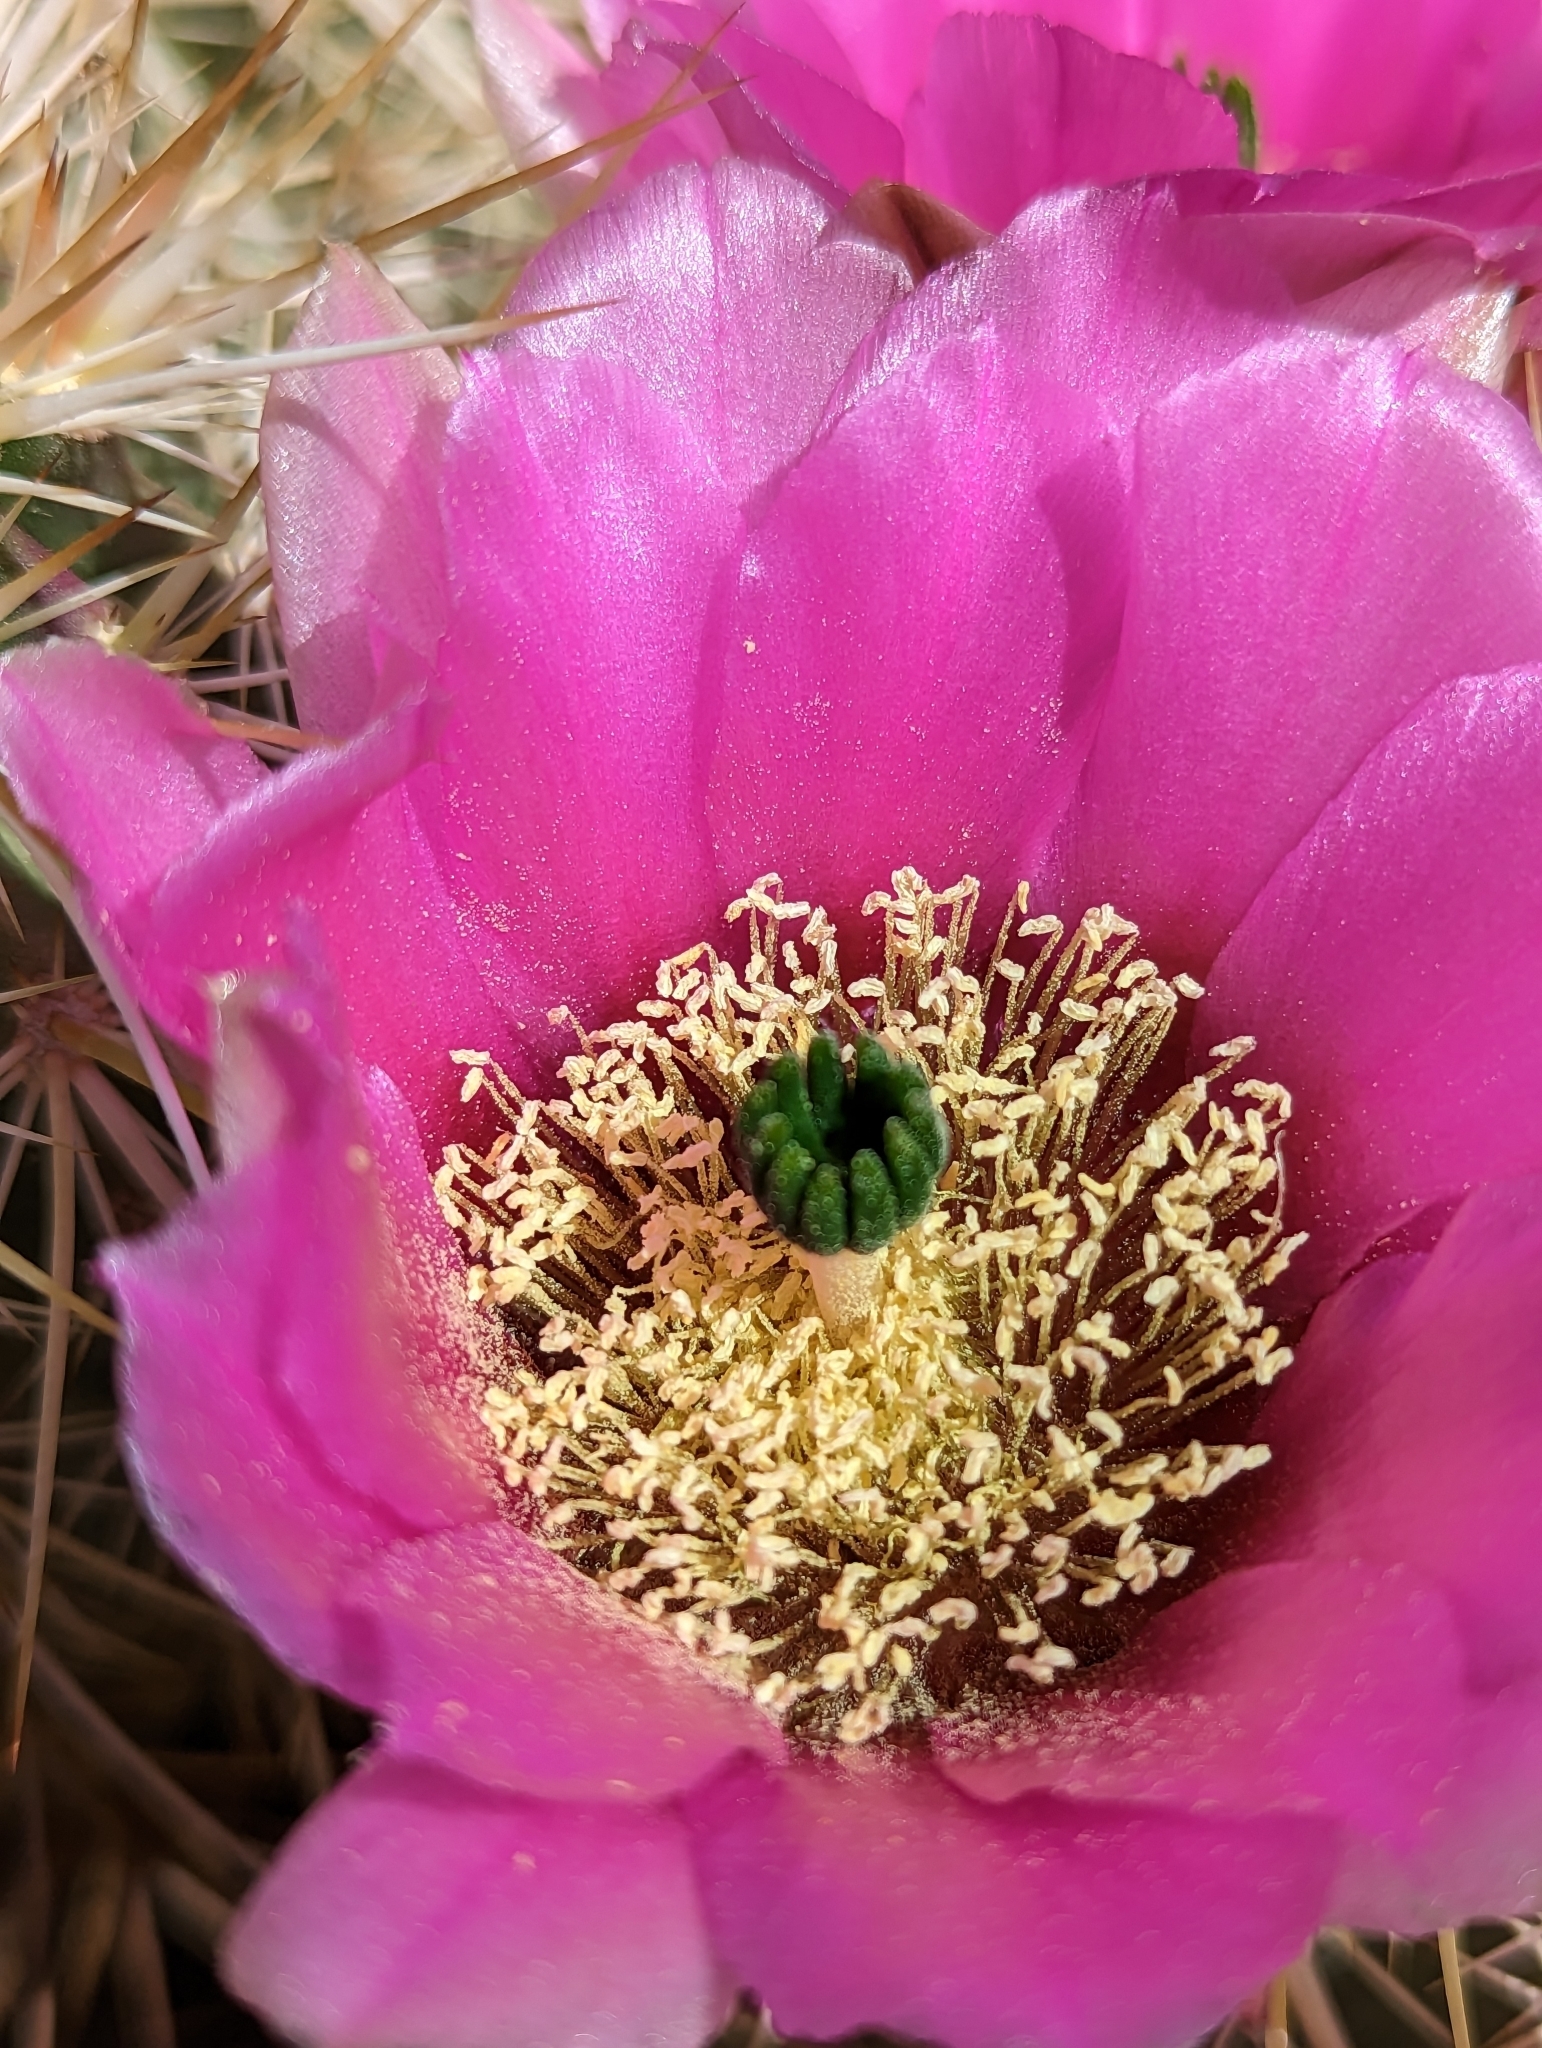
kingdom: Plantae
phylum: Tracheophyta
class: Magnoliopsida
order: Caryophyllales
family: Cactaceae
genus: Echinocereus
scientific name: Echinocereus engelmannii
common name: Engelmann's hedgehog cactus
